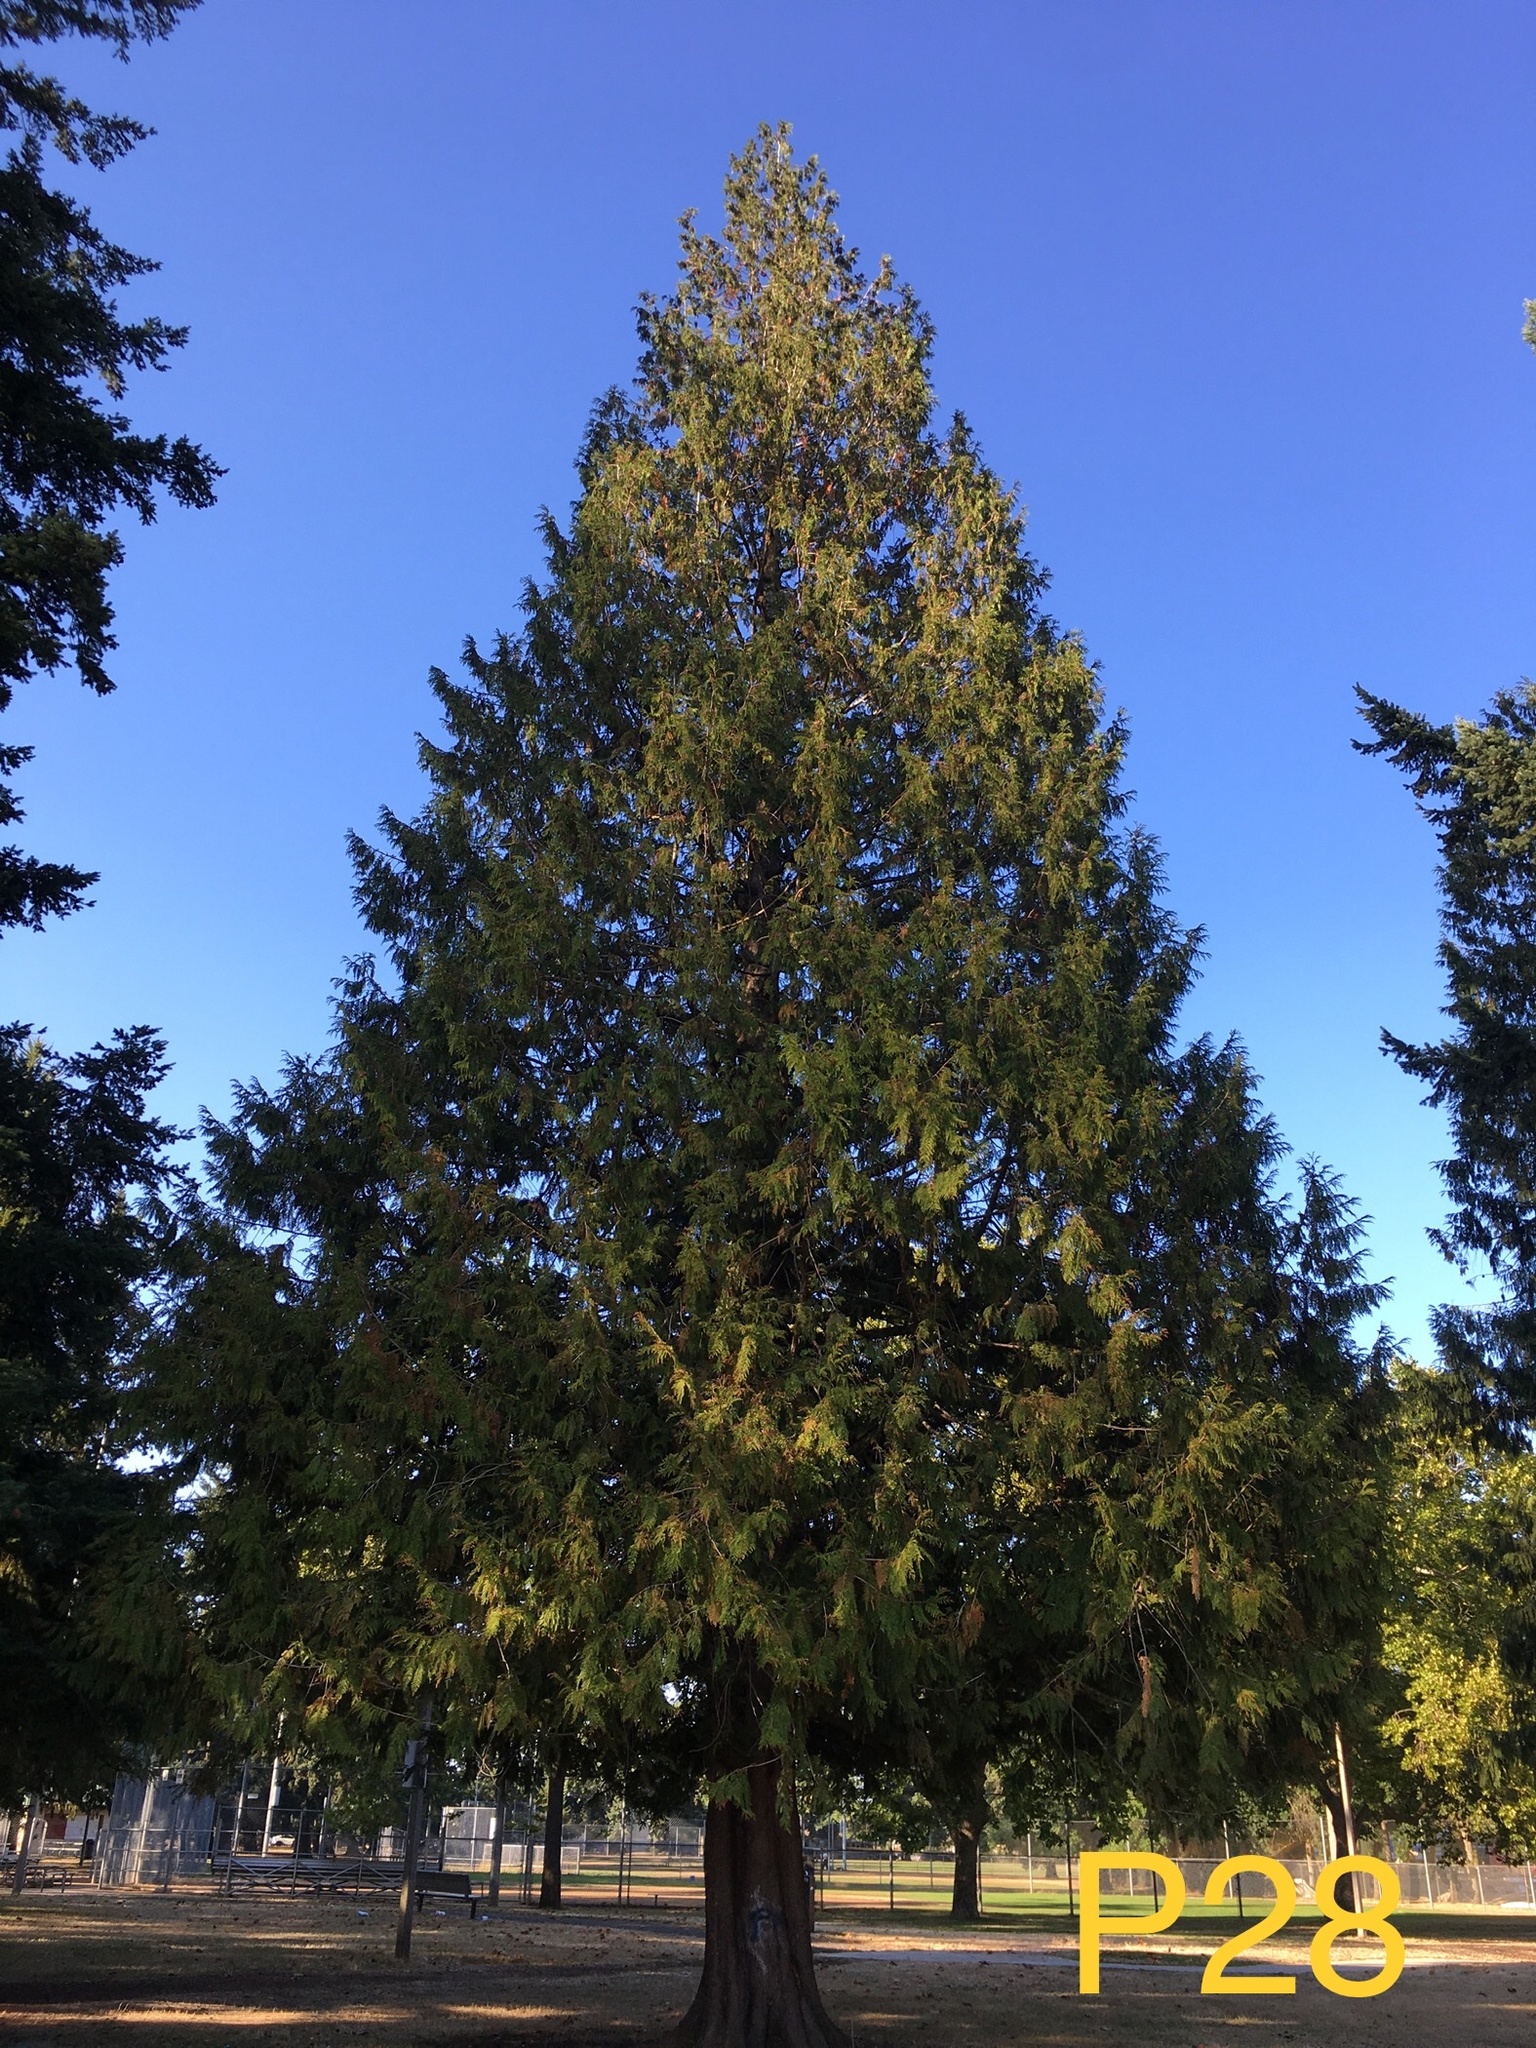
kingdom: Plantae
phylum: Tracheophyta
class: Pinopsida
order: Pinales
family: Cupressaceae
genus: Thuja
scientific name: Thuja plicata
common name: Western red-cedar
